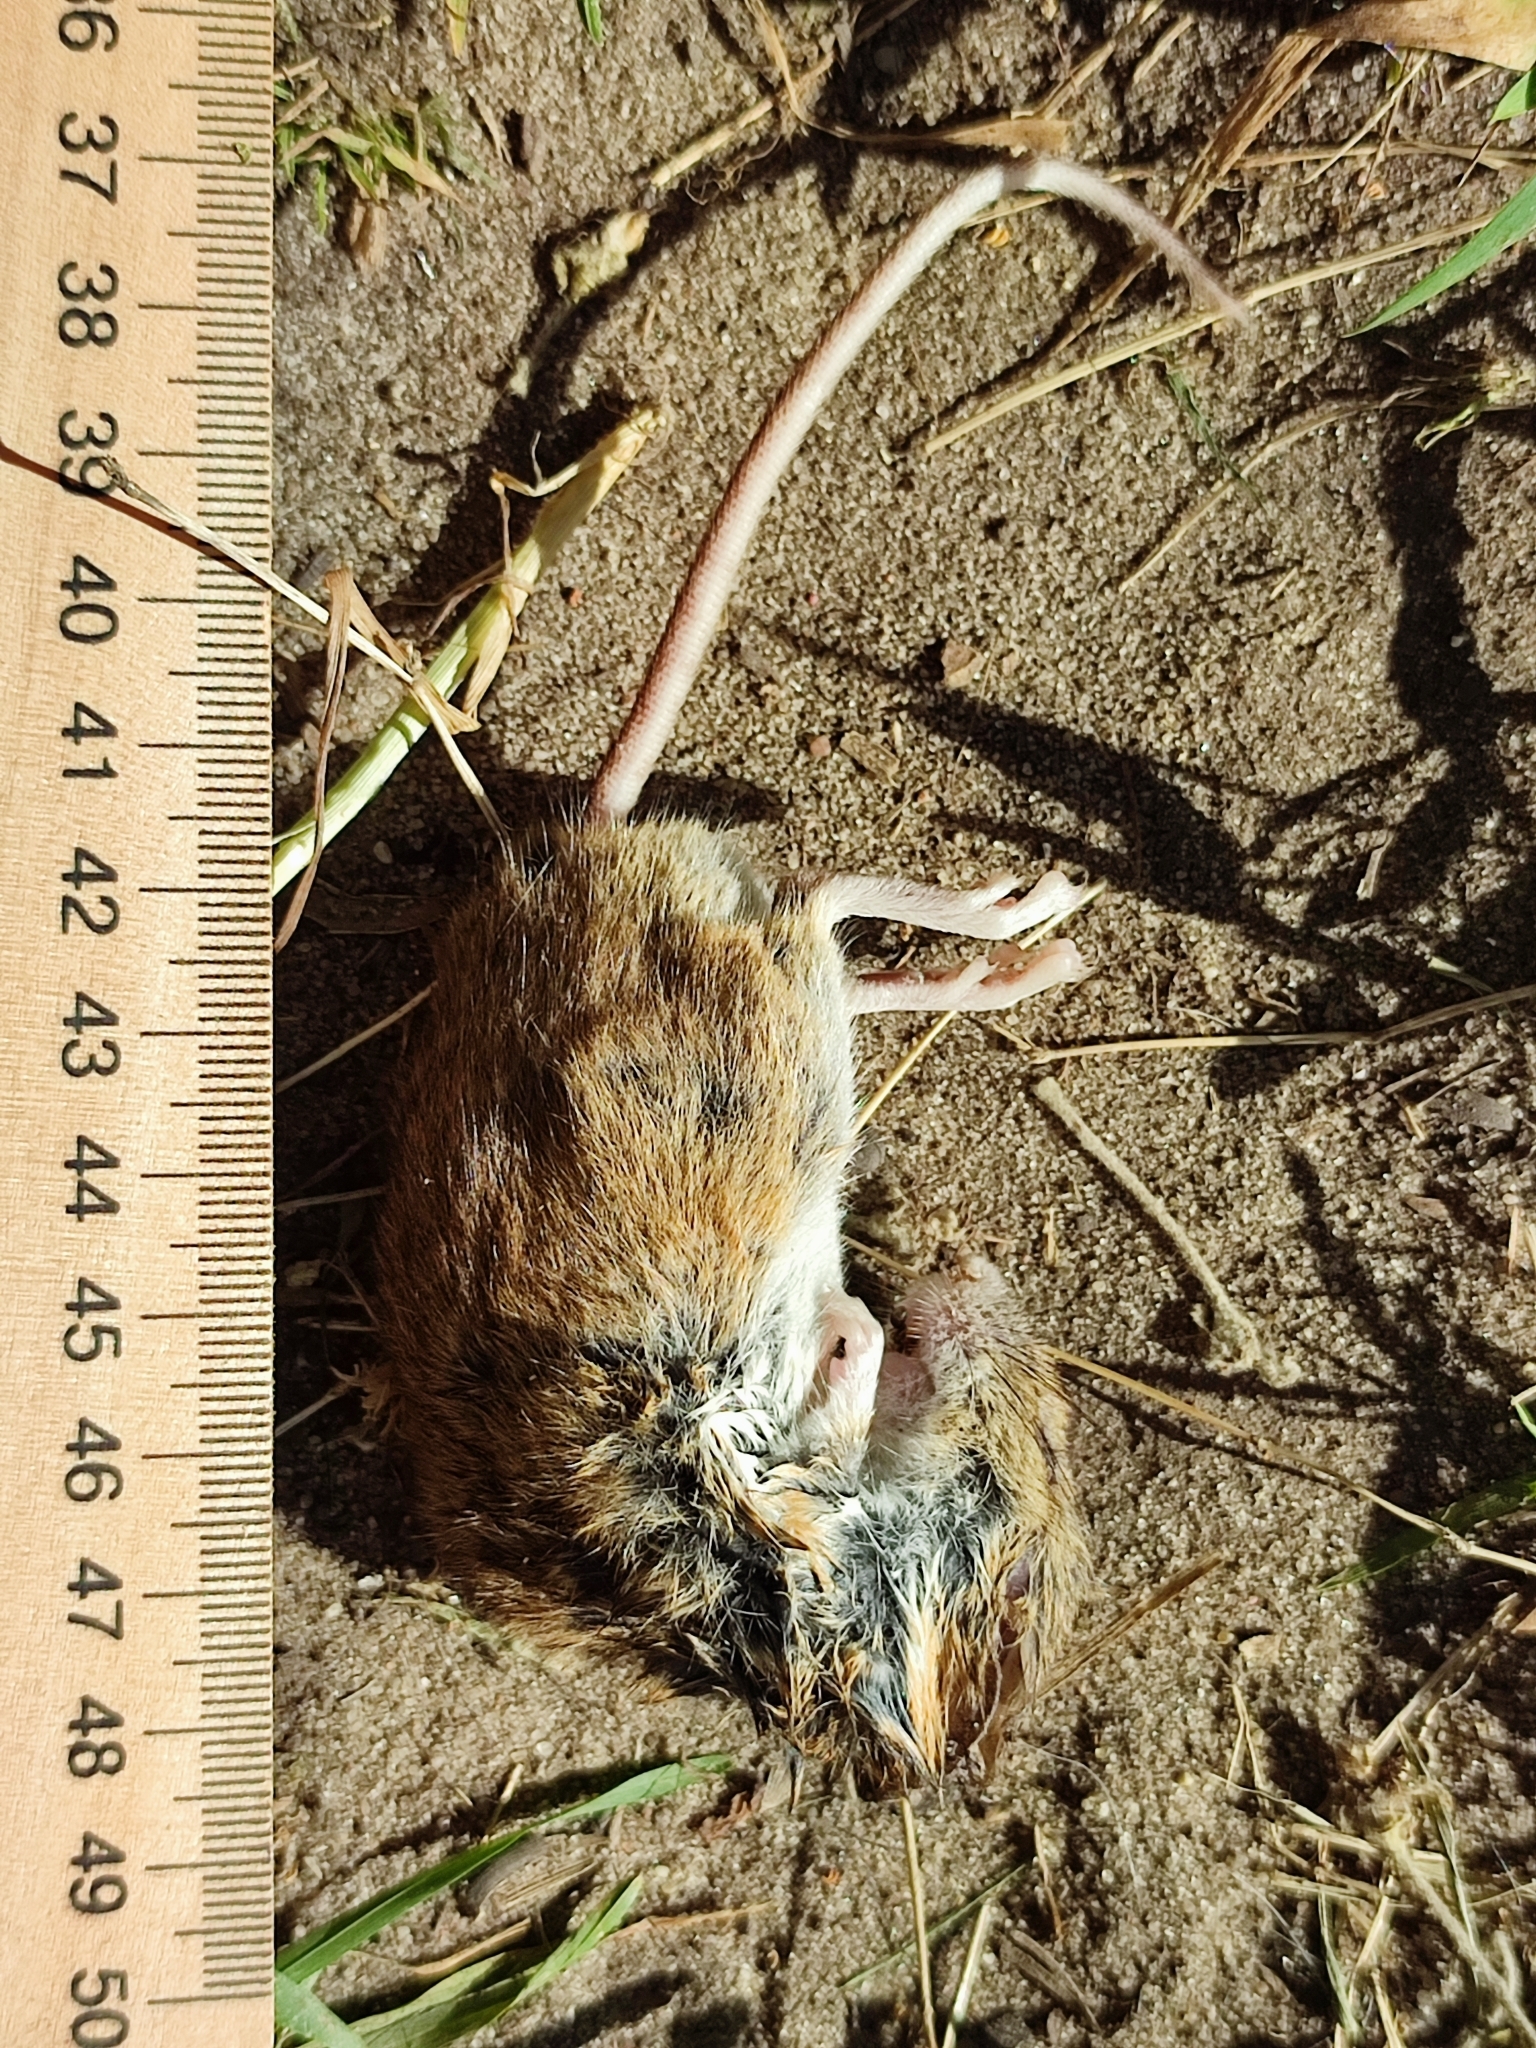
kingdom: Animalia
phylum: Chordata
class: Mammalia
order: Rodentia
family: Muridae
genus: Apodemus
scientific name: Apodemus
